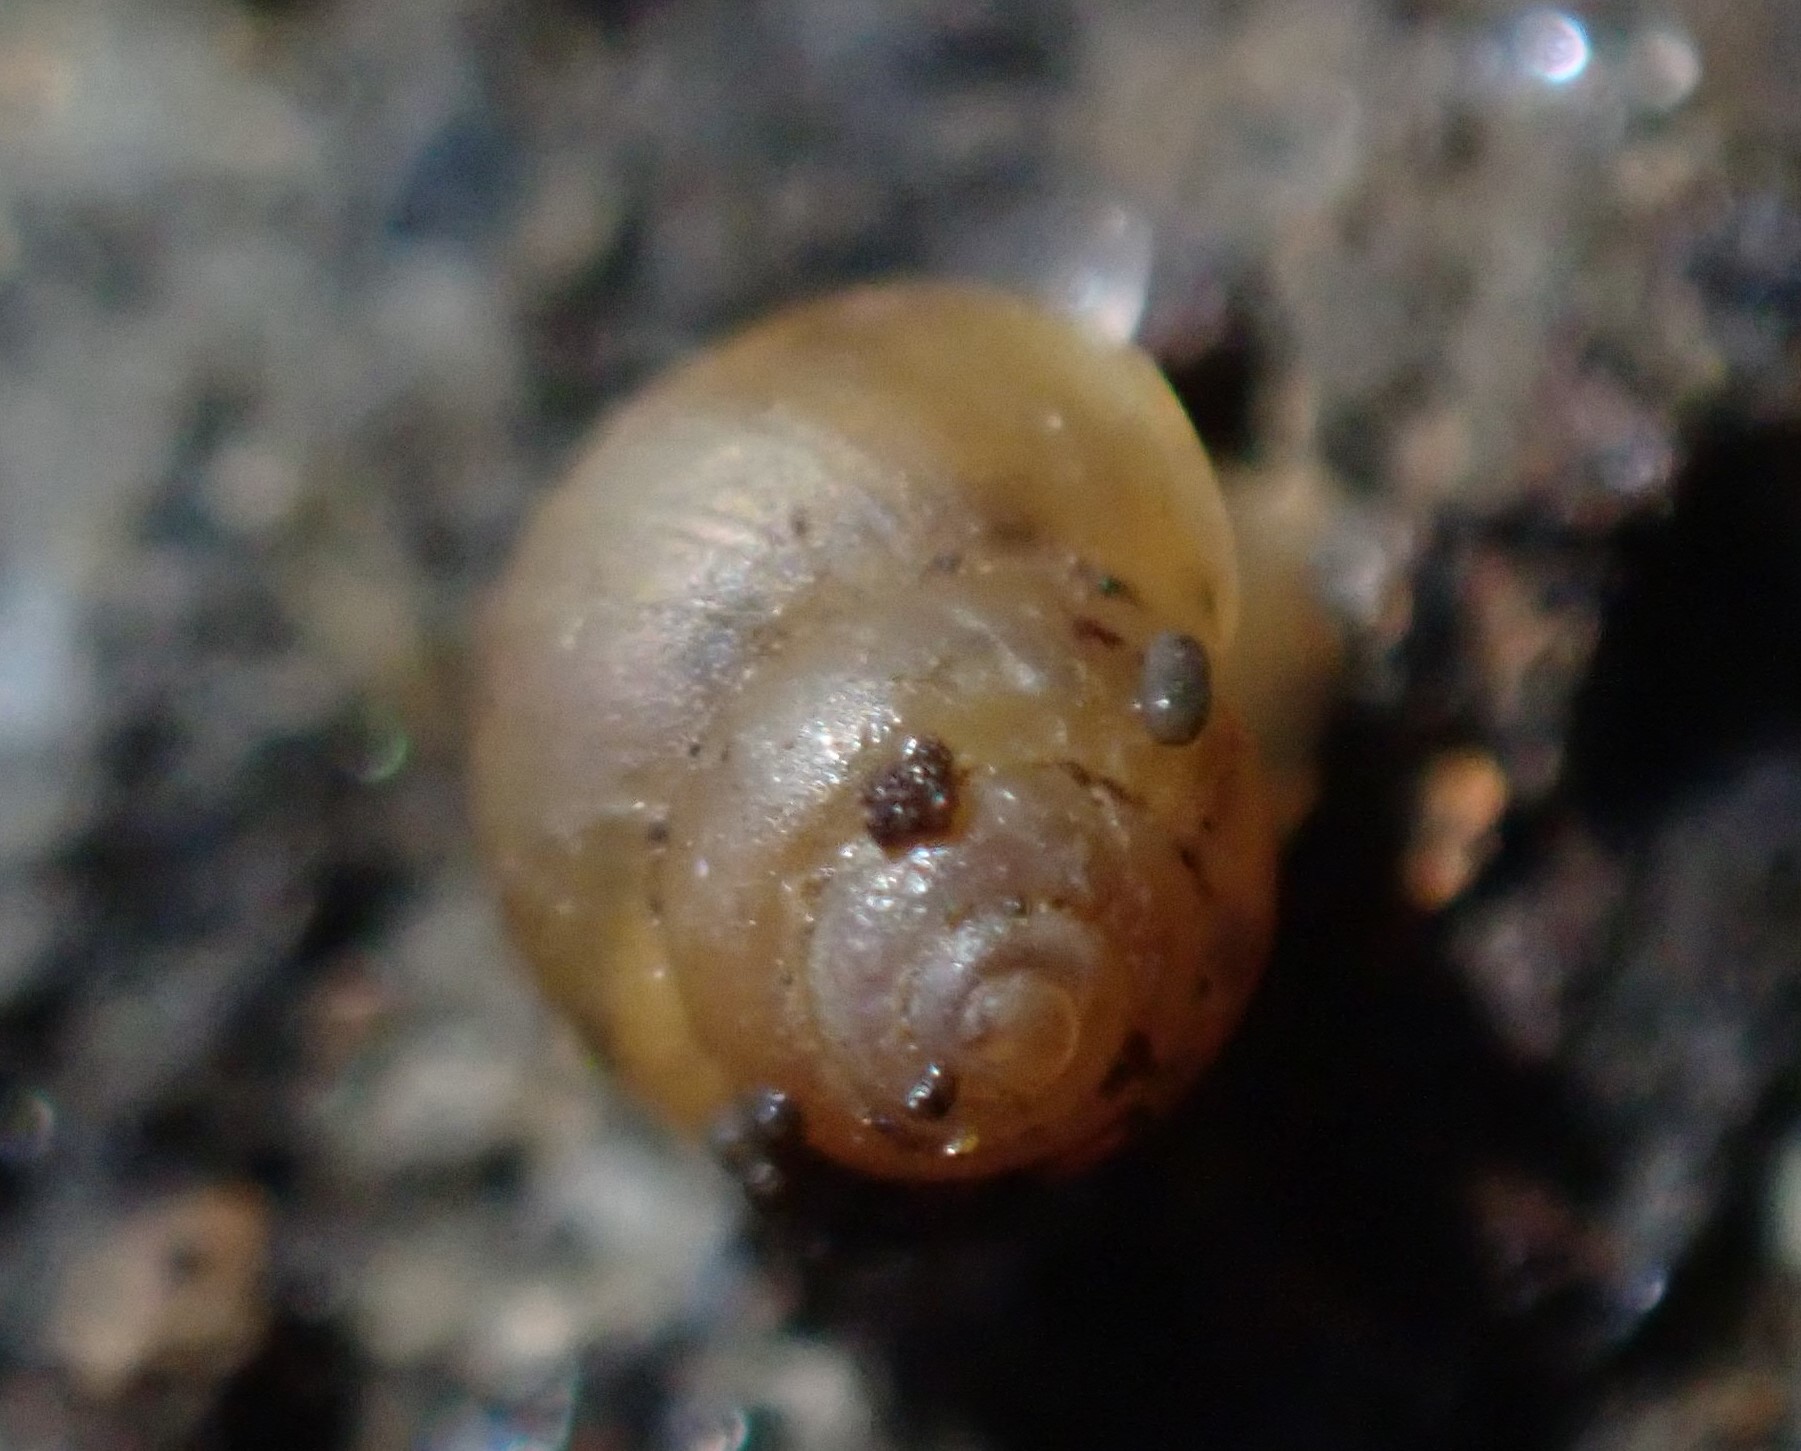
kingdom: Animalia
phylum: Mollusca
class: Gastropoda
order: Littorinimorpha
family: Assimineidae
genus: Suterilla
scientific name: Suterilla neozelanica
